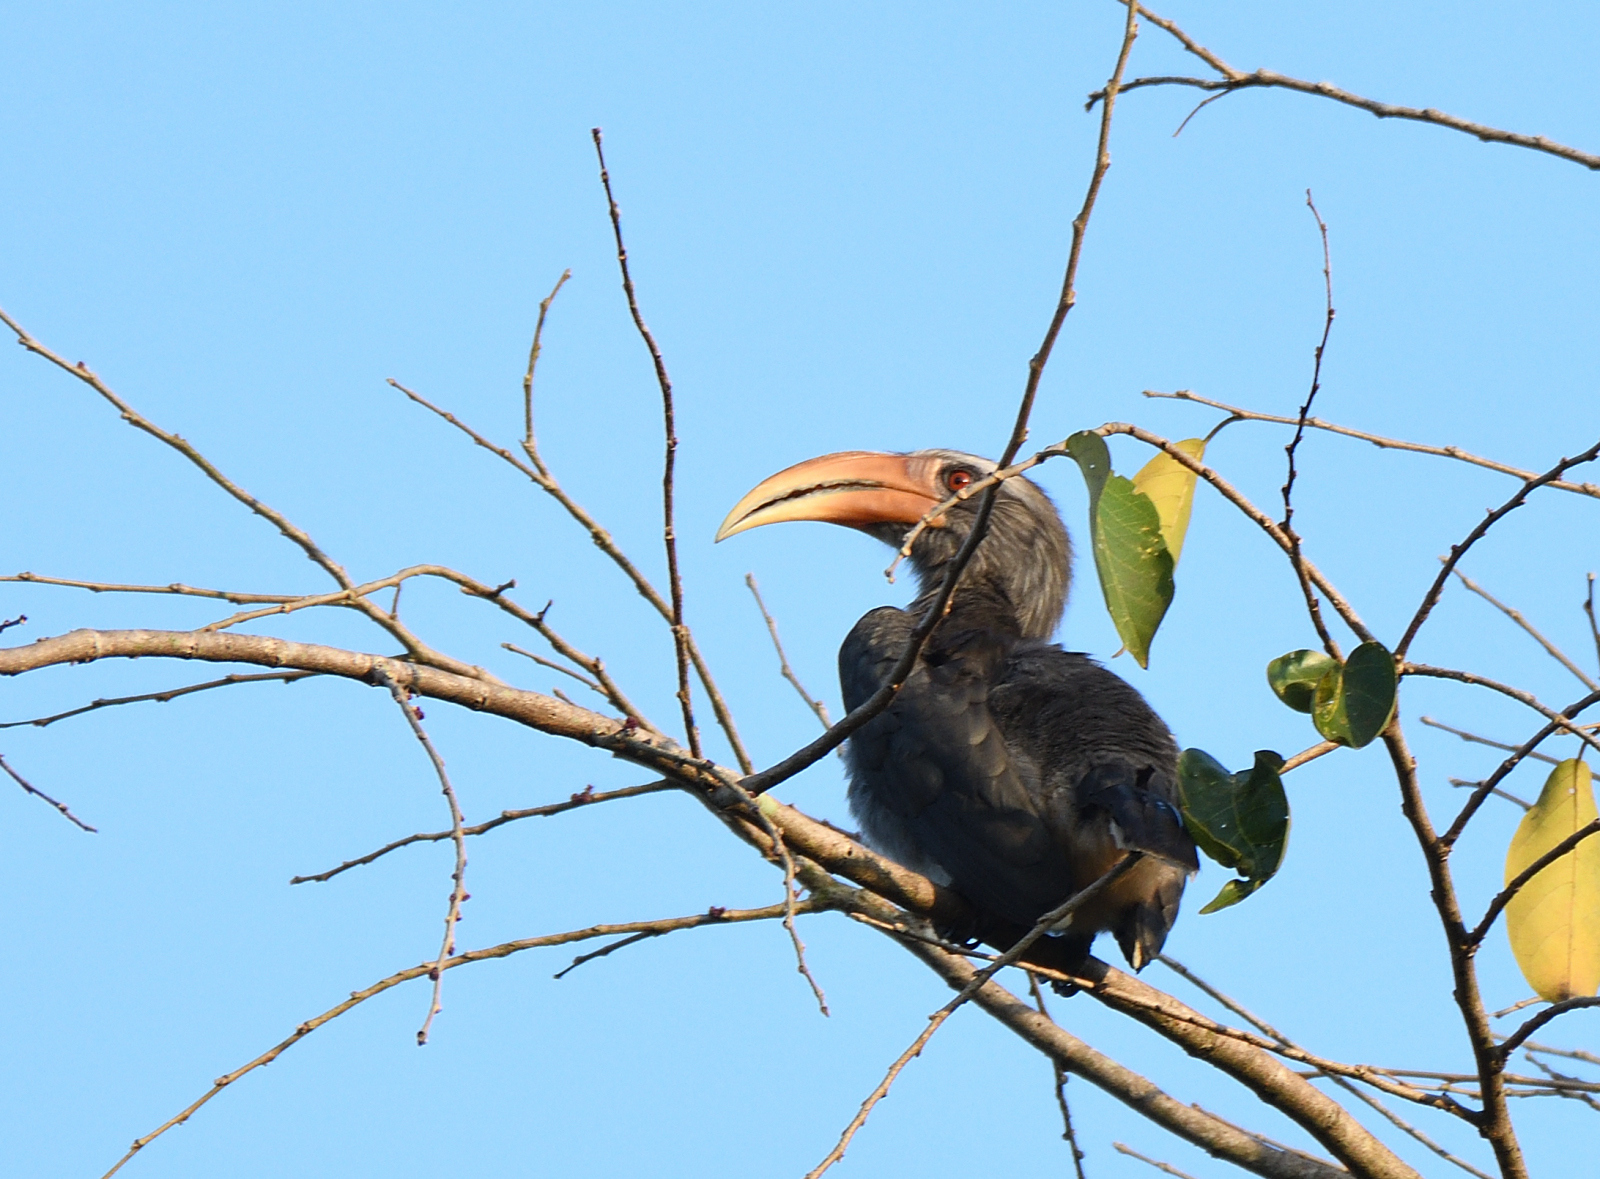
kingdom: Animalia
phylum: Chordata
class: Aves
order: Bucerotiformes
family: Bucerotidae
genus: Ocyceros
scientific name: Ocyceros griseus
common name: Malabar grey hornbill
